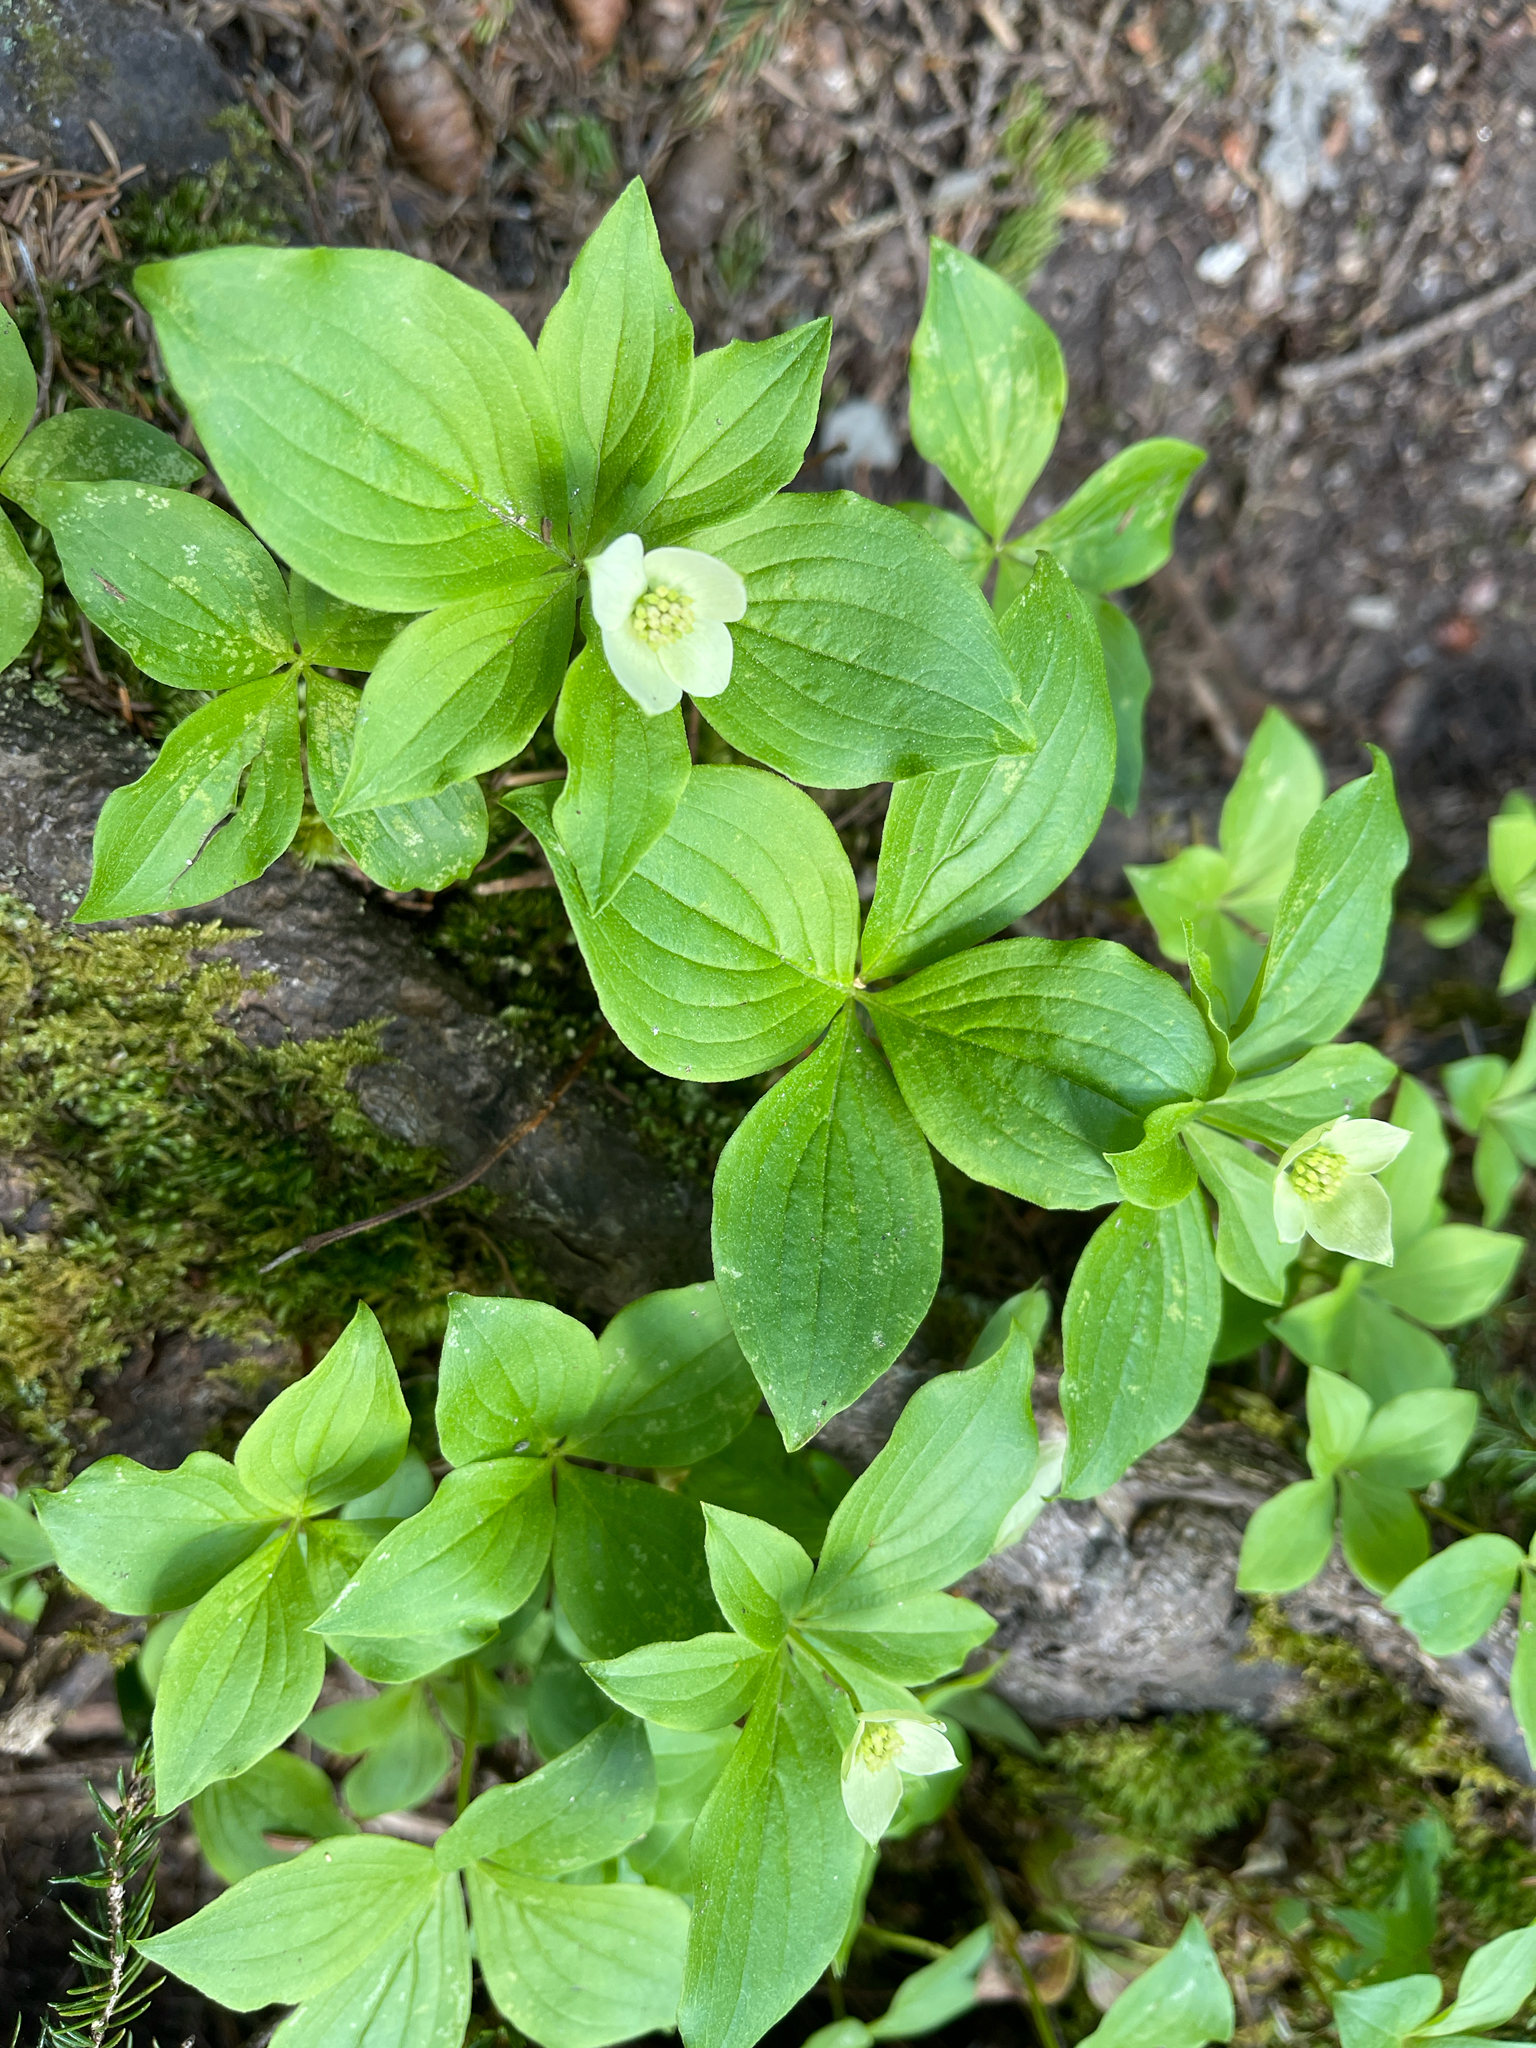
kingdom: Plantae
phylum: Tracheophyta
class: Magnoliopsida
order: Cornales
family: Cornaceae
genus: Cornus
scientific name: Cornus canadensis
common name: Creeping dogwood
